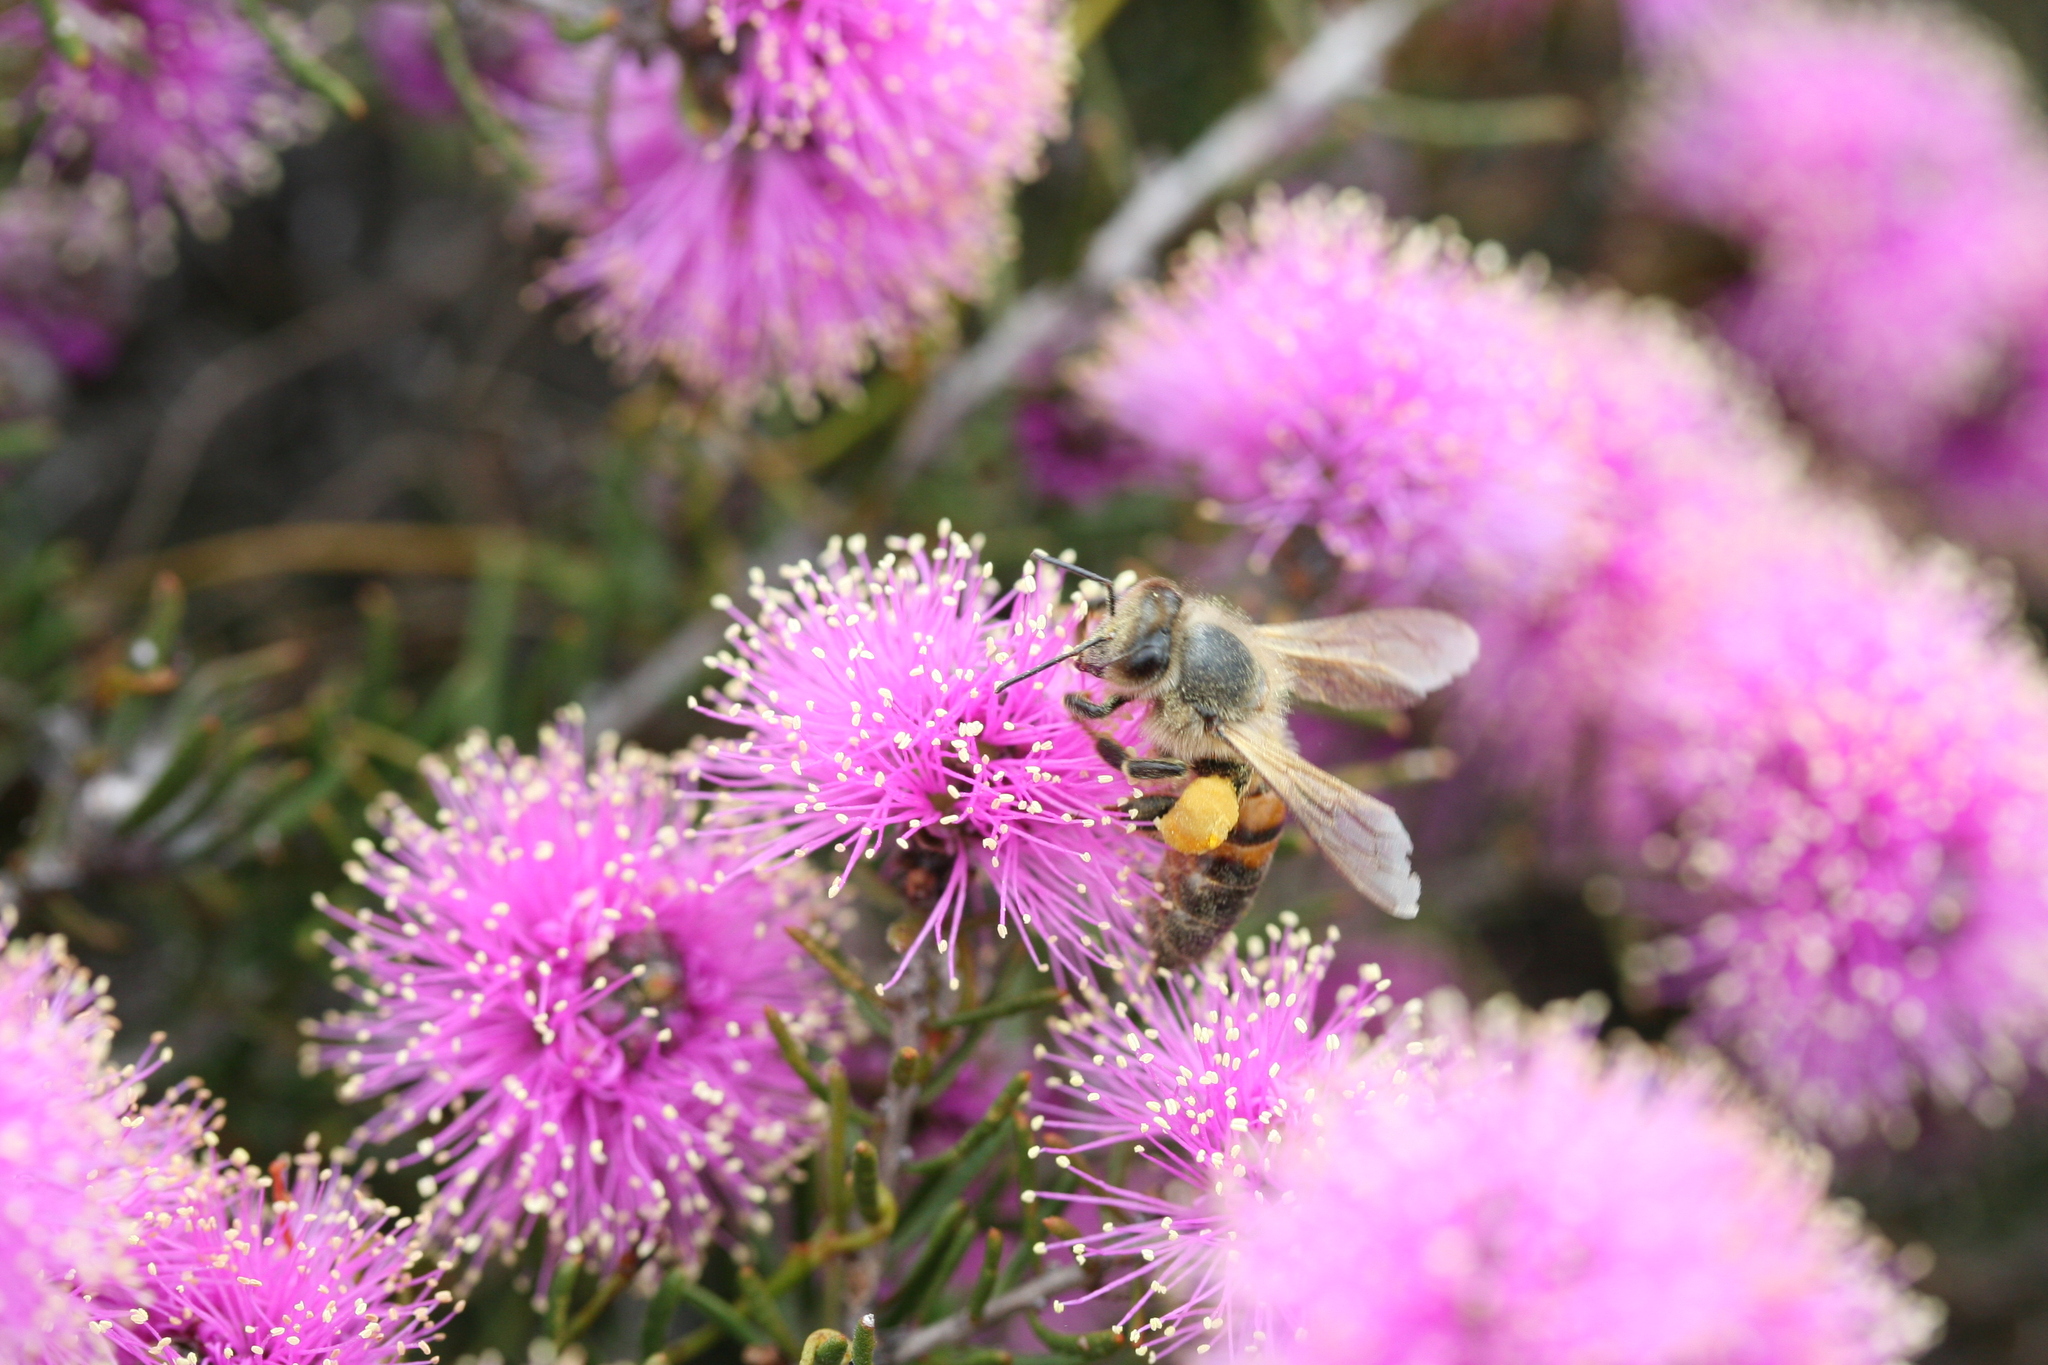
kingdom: Animalia
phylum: Arthropoda
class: Insecta
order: Hymenoptera
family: Apidae
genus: Apis
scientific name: Apis mellifera
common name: Honey bee
